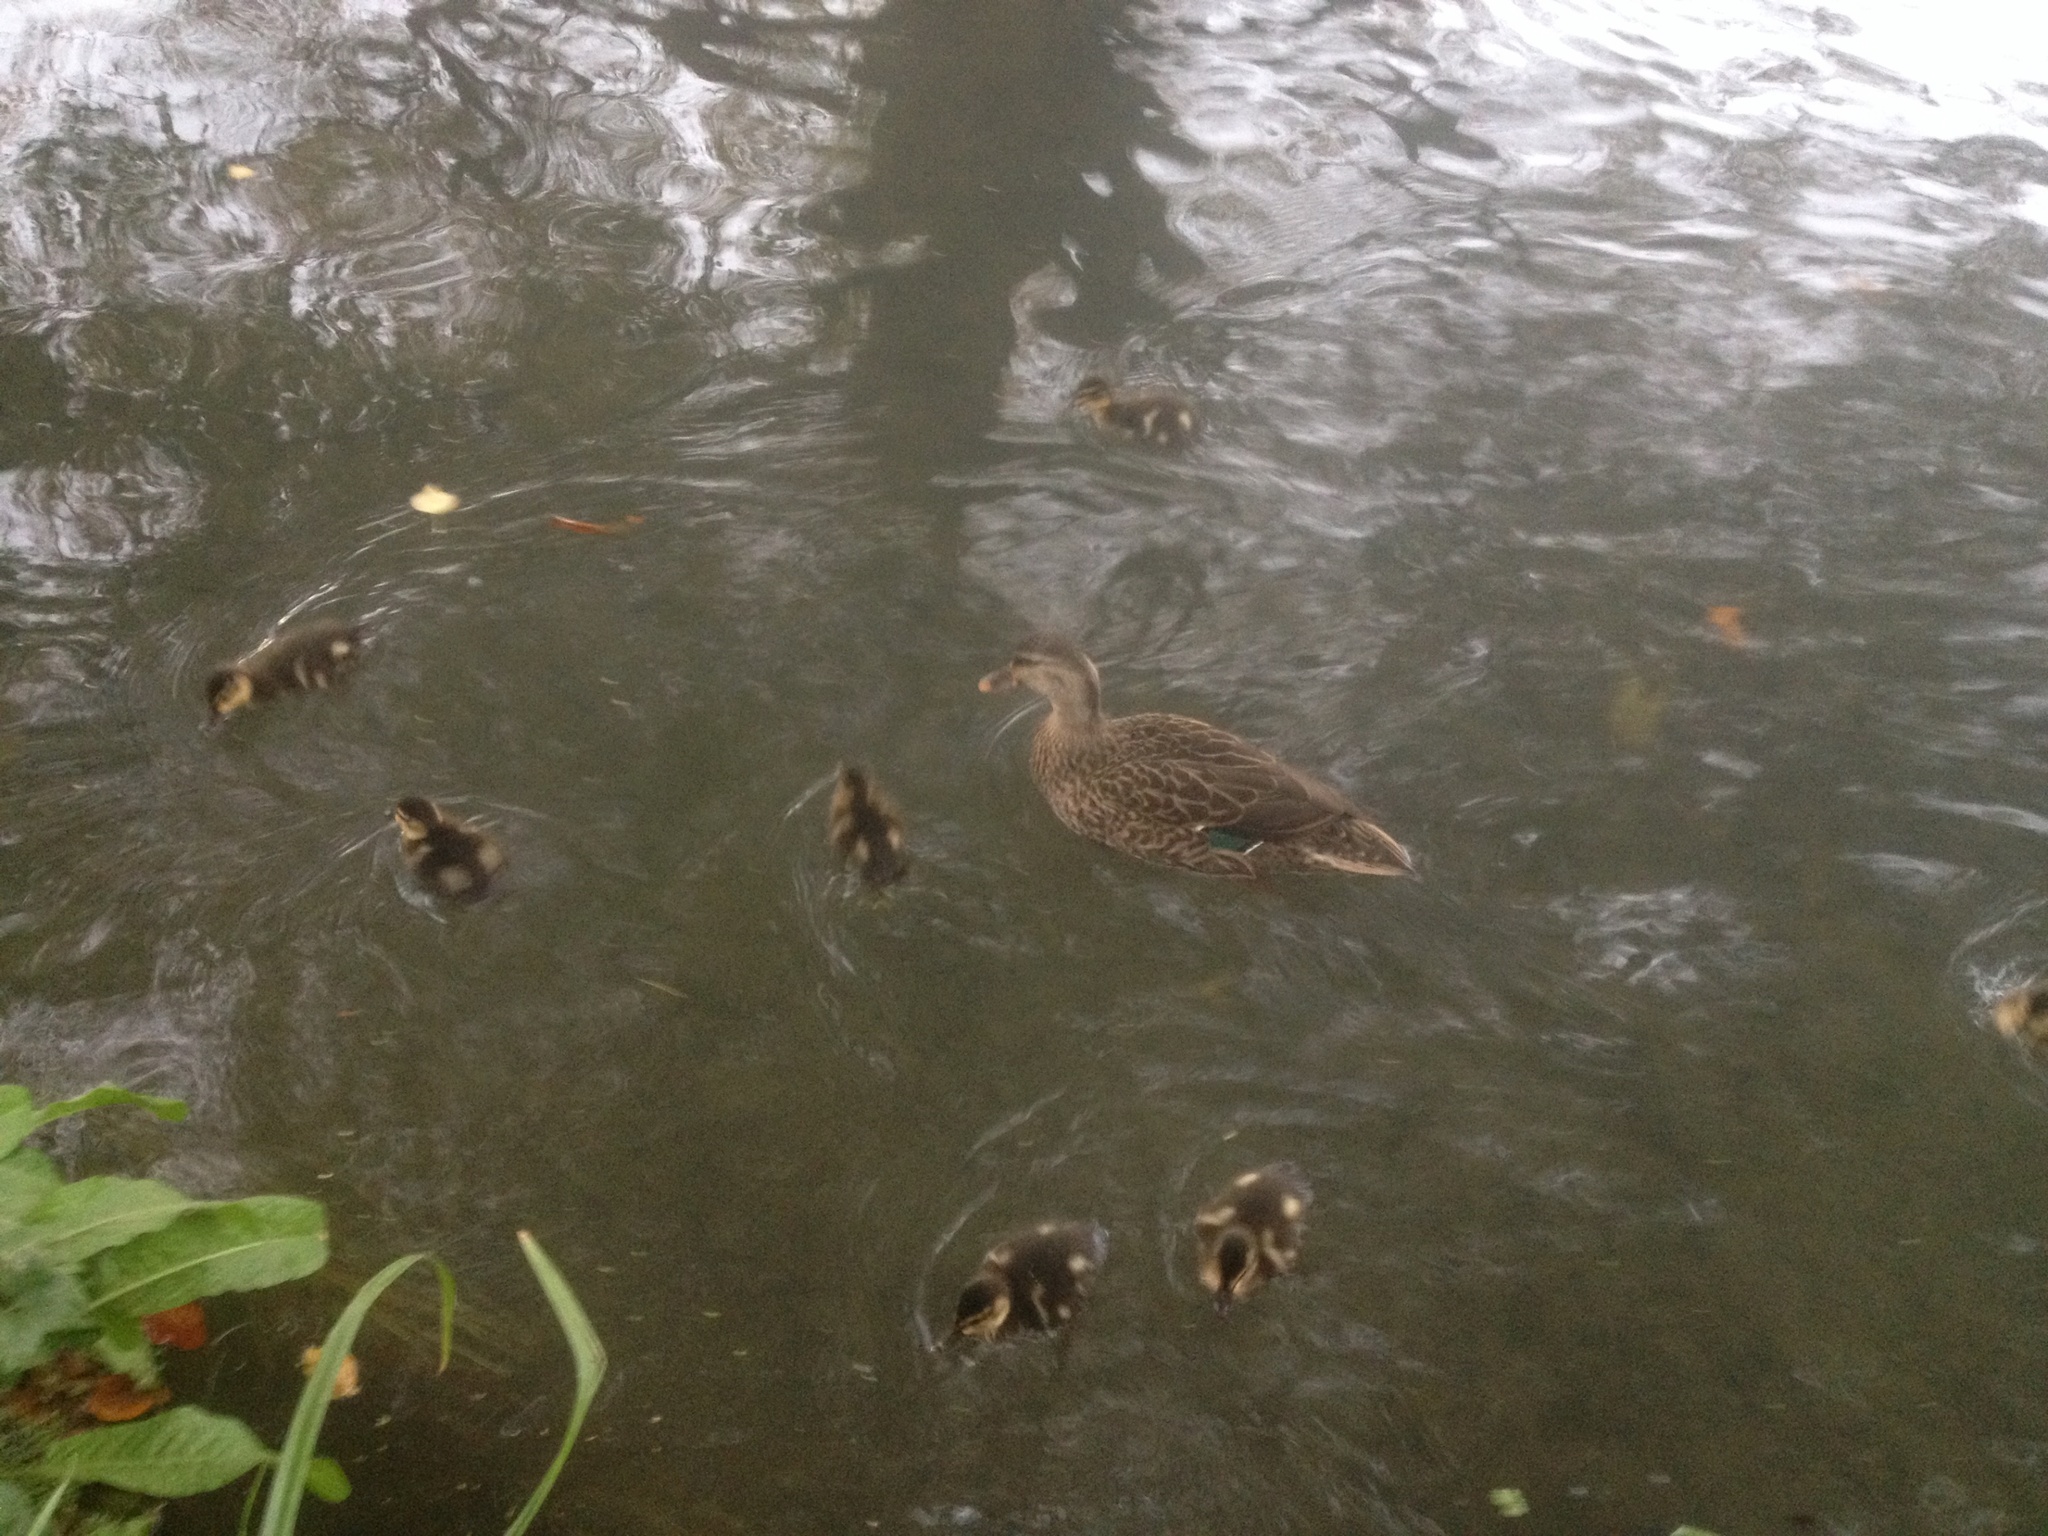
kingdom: Animalia
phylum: Chordata
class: Aves
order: Anseriformes
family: Anatidae
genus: Anas
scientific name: Anas
